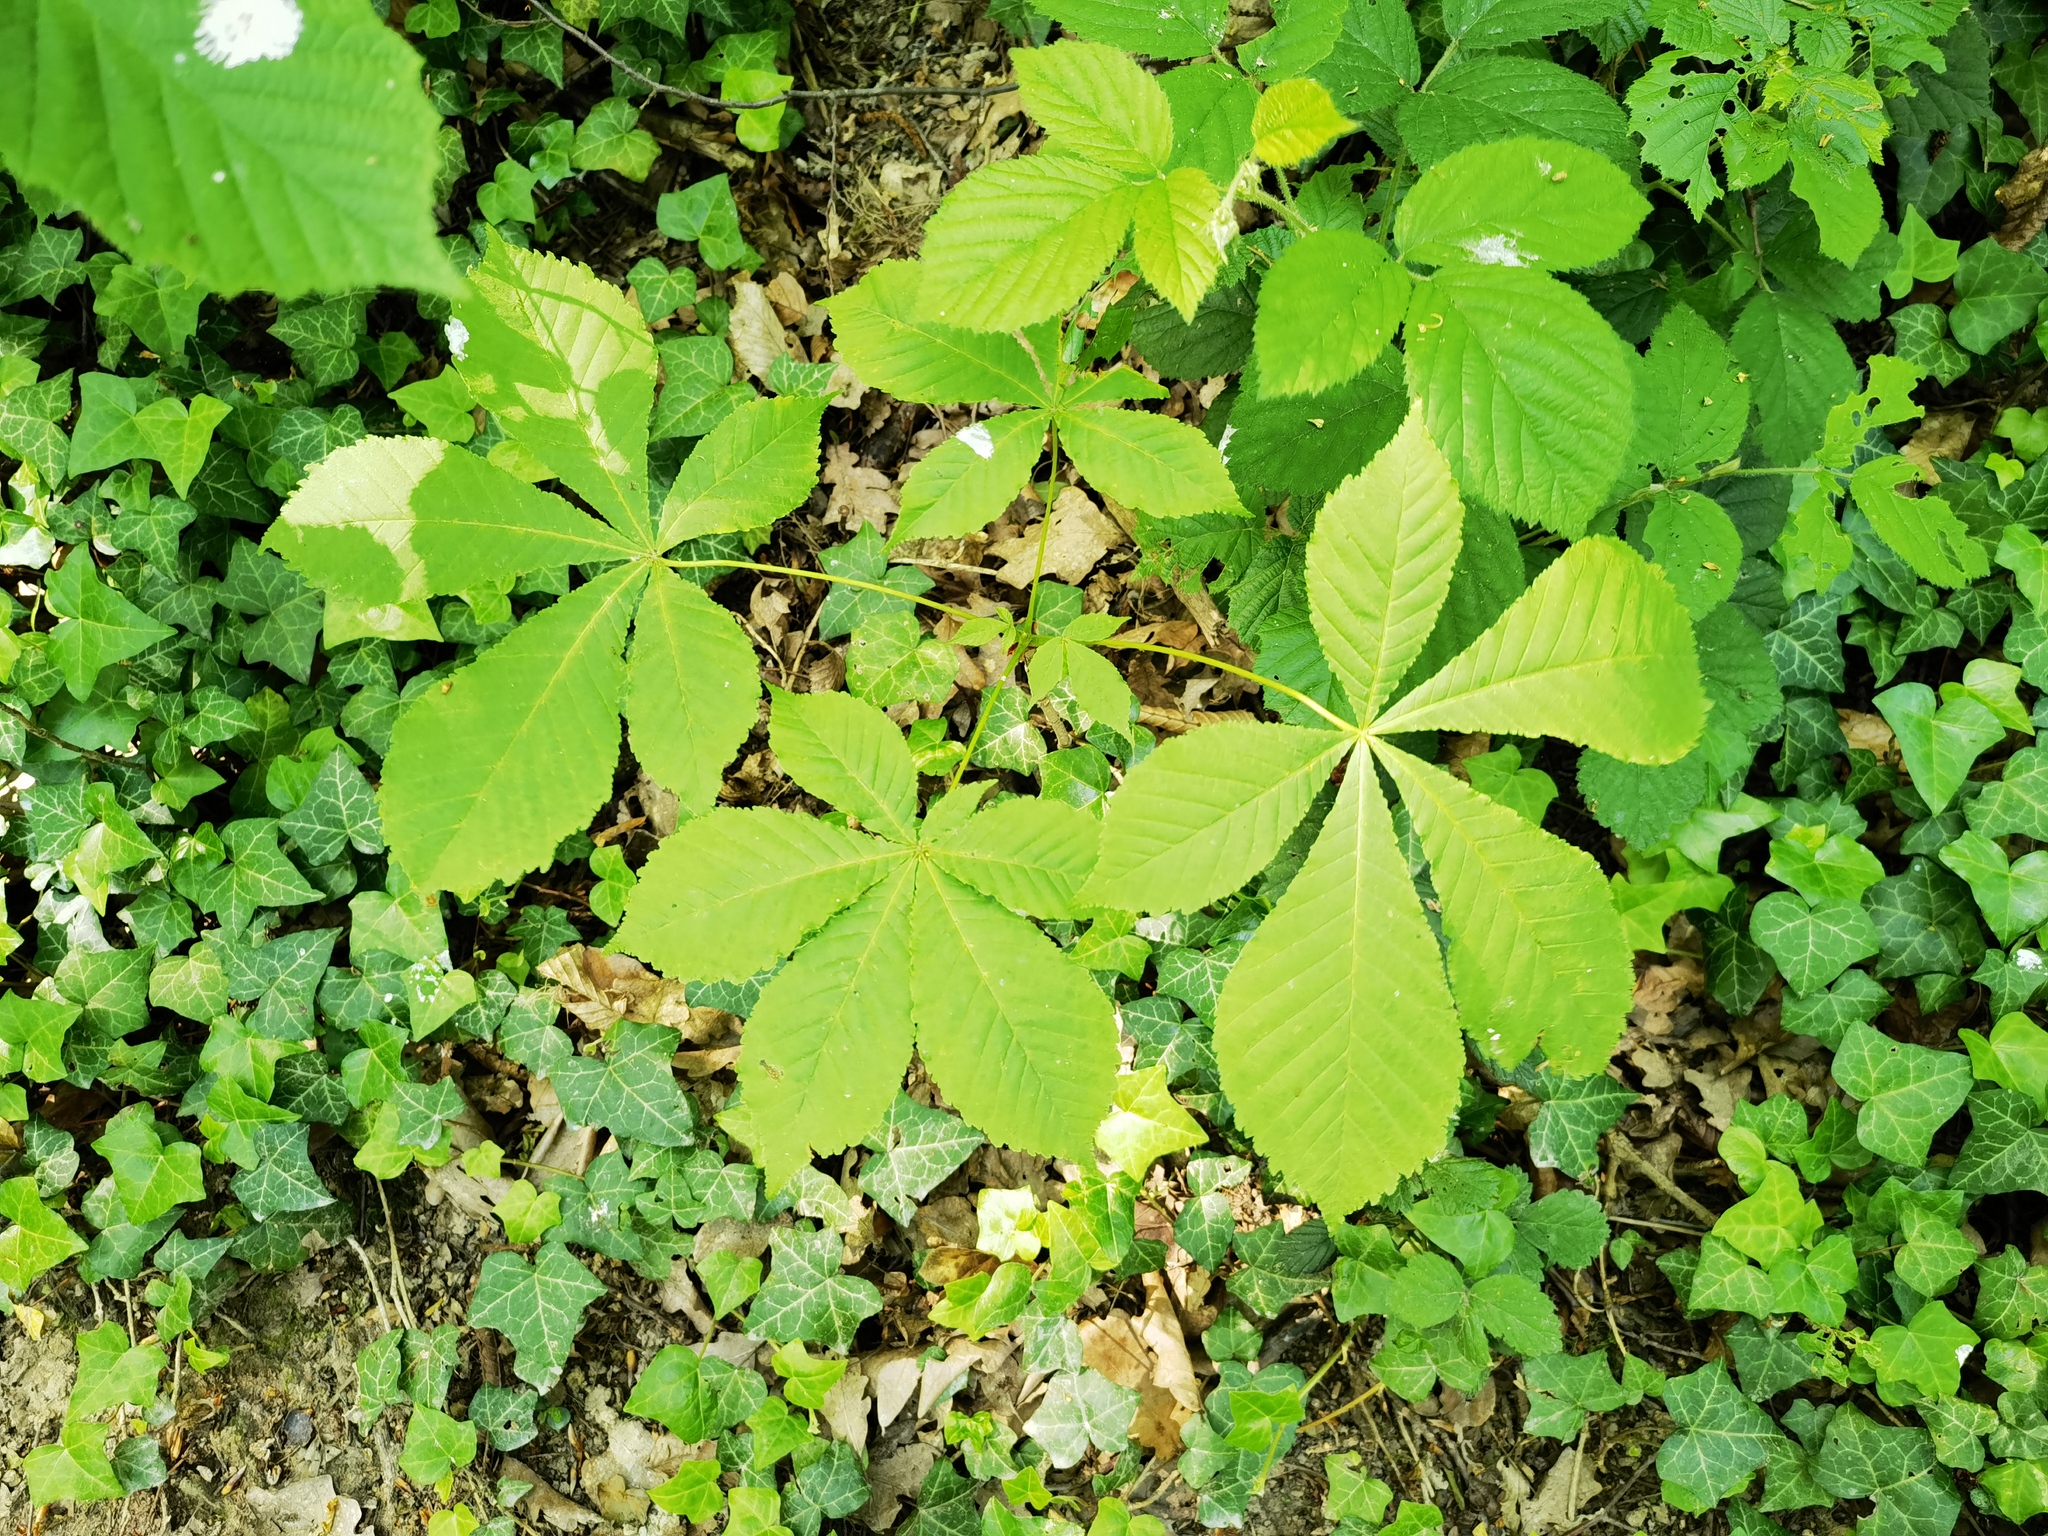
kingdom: Plantae
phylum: Tracheophyta
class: Magnoliopsida
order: Sapindales
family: Sapindaceae
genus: Aesculus
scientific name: Aesculus hippocastanum
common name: Horse-chestnut
